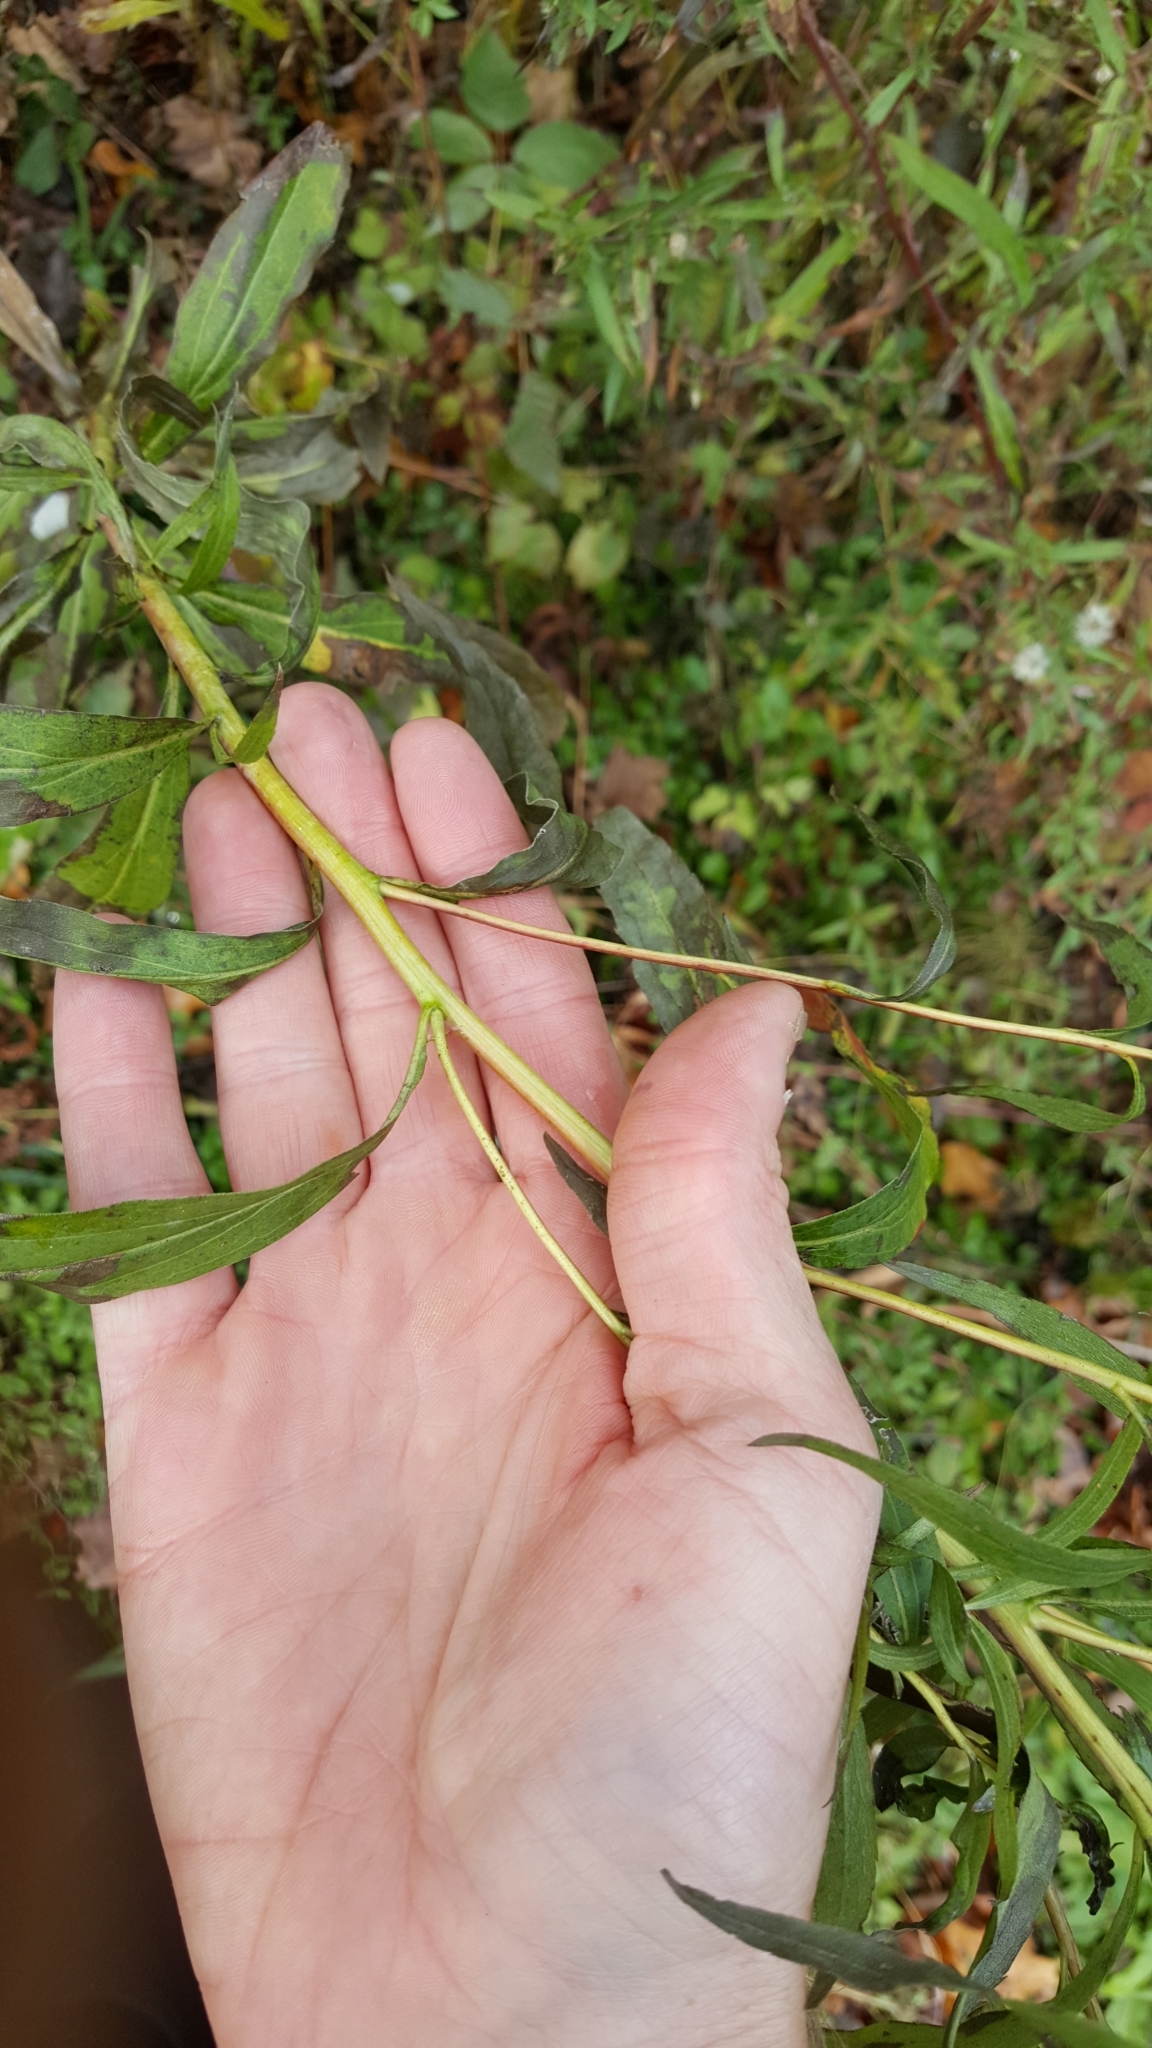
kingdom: Plantae
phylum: Tracheophyta
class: Magnoliopsida
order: Asterales
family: Asteraceae
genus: Solidago
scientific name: Solidago gigantea
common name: Giant goldenrod
